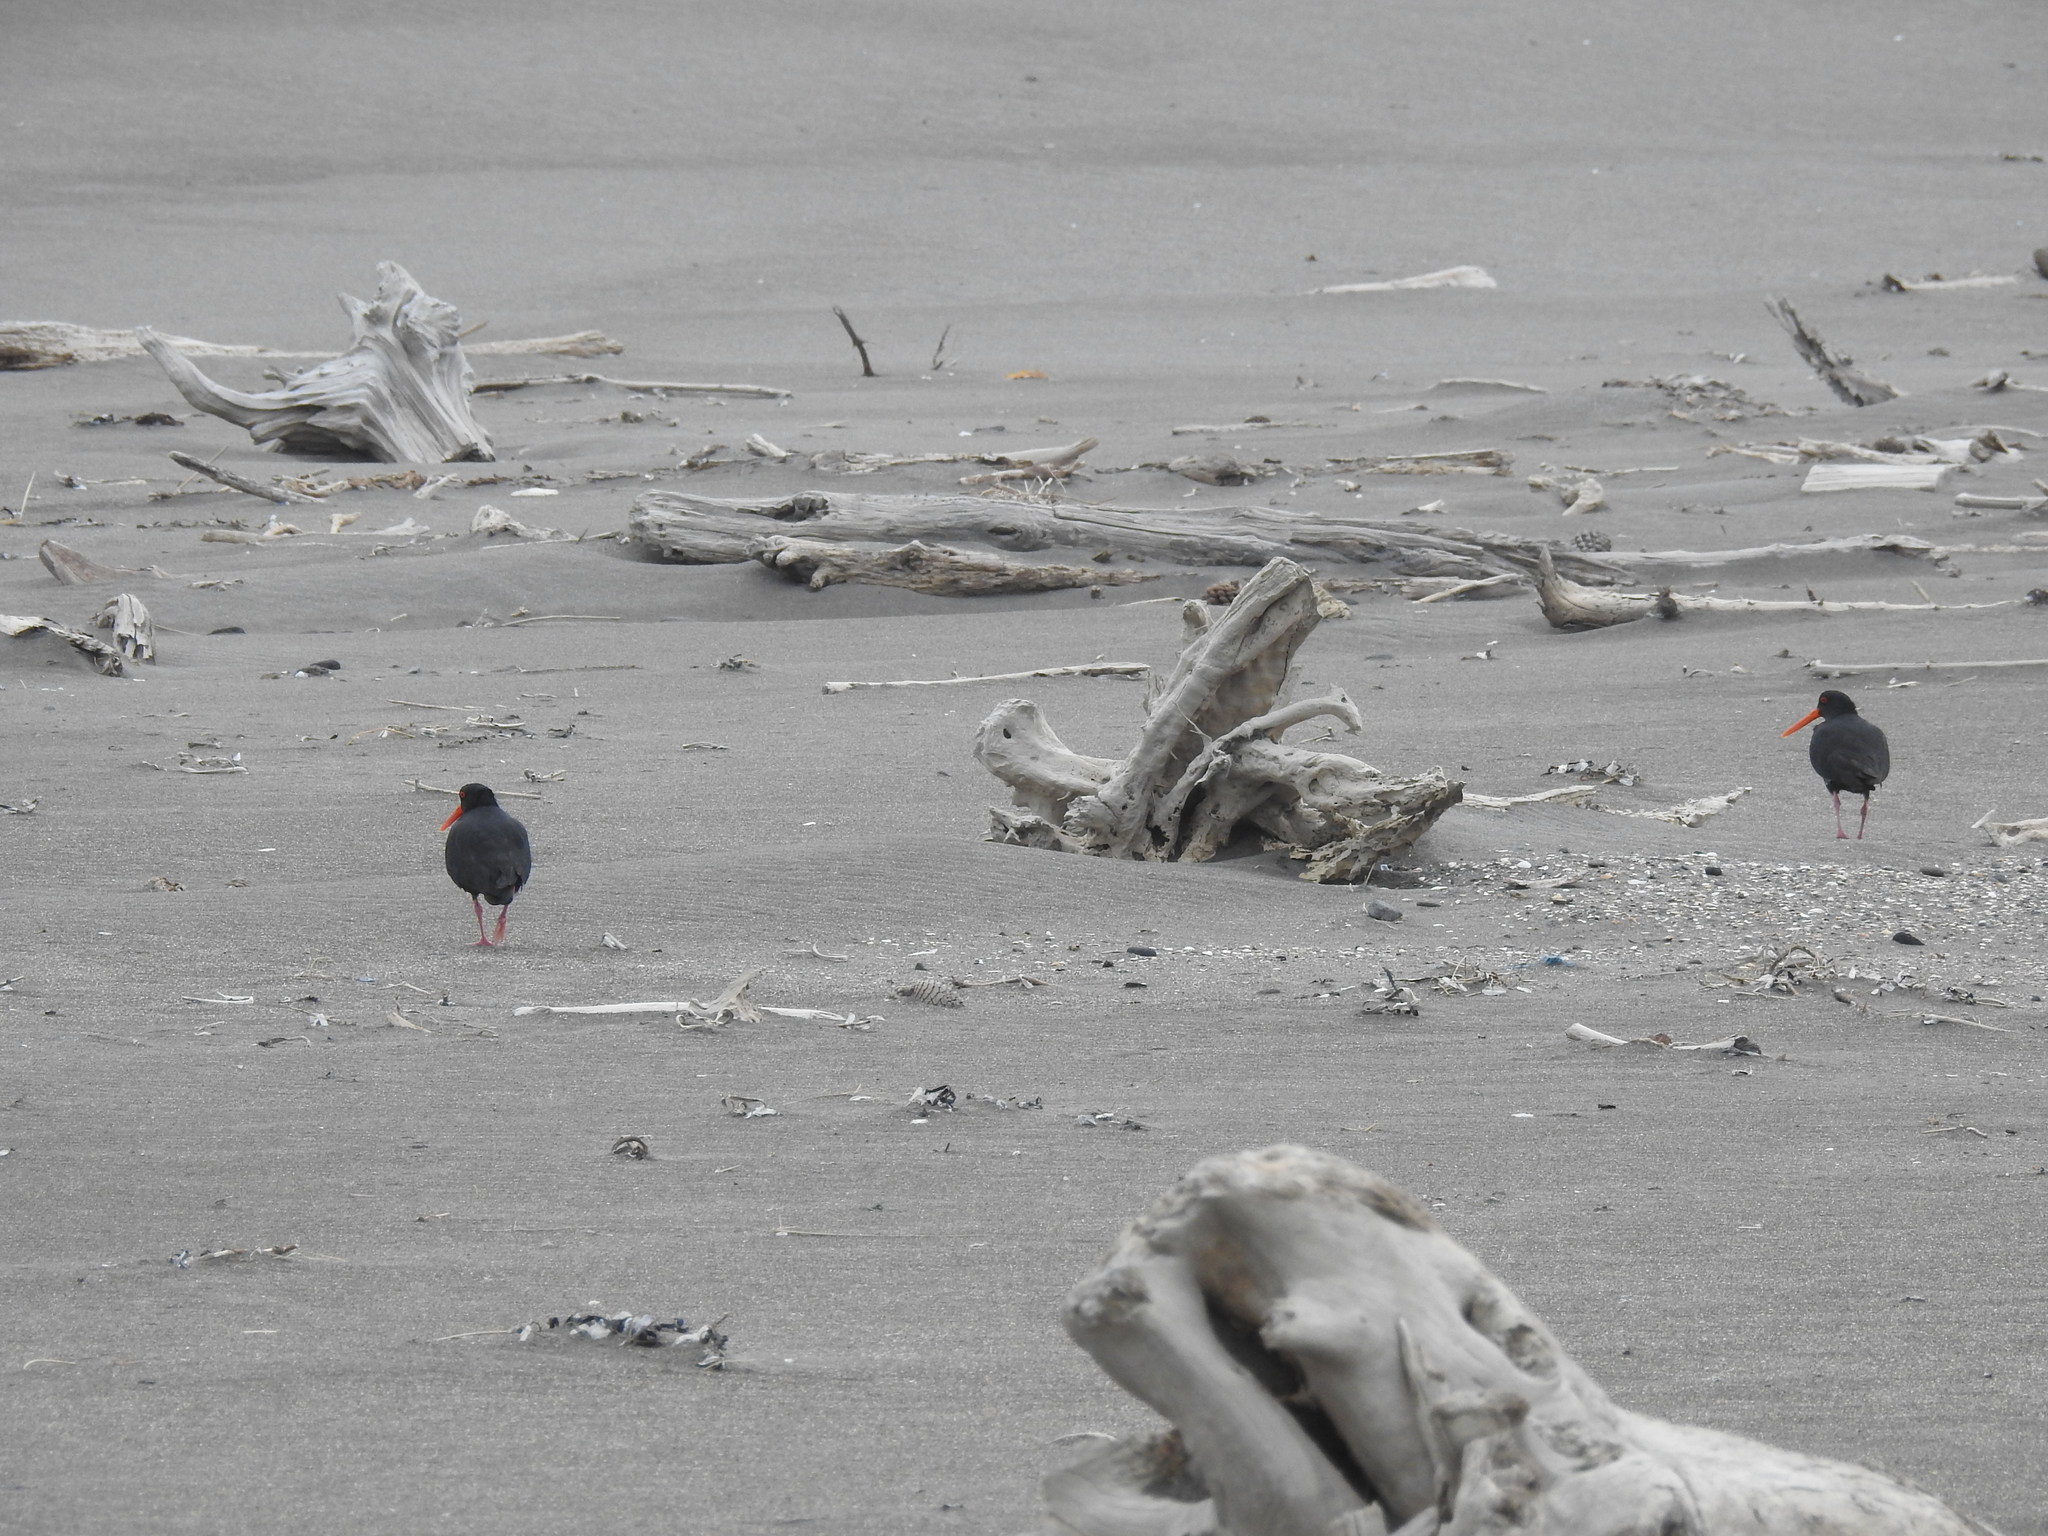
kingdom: Animalia
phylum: Chordata
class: Aves
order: Charadriiformes
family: Haematopodidae
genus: Haematopus
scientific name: Haematopus unicolor
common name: Variable oystercatcher
